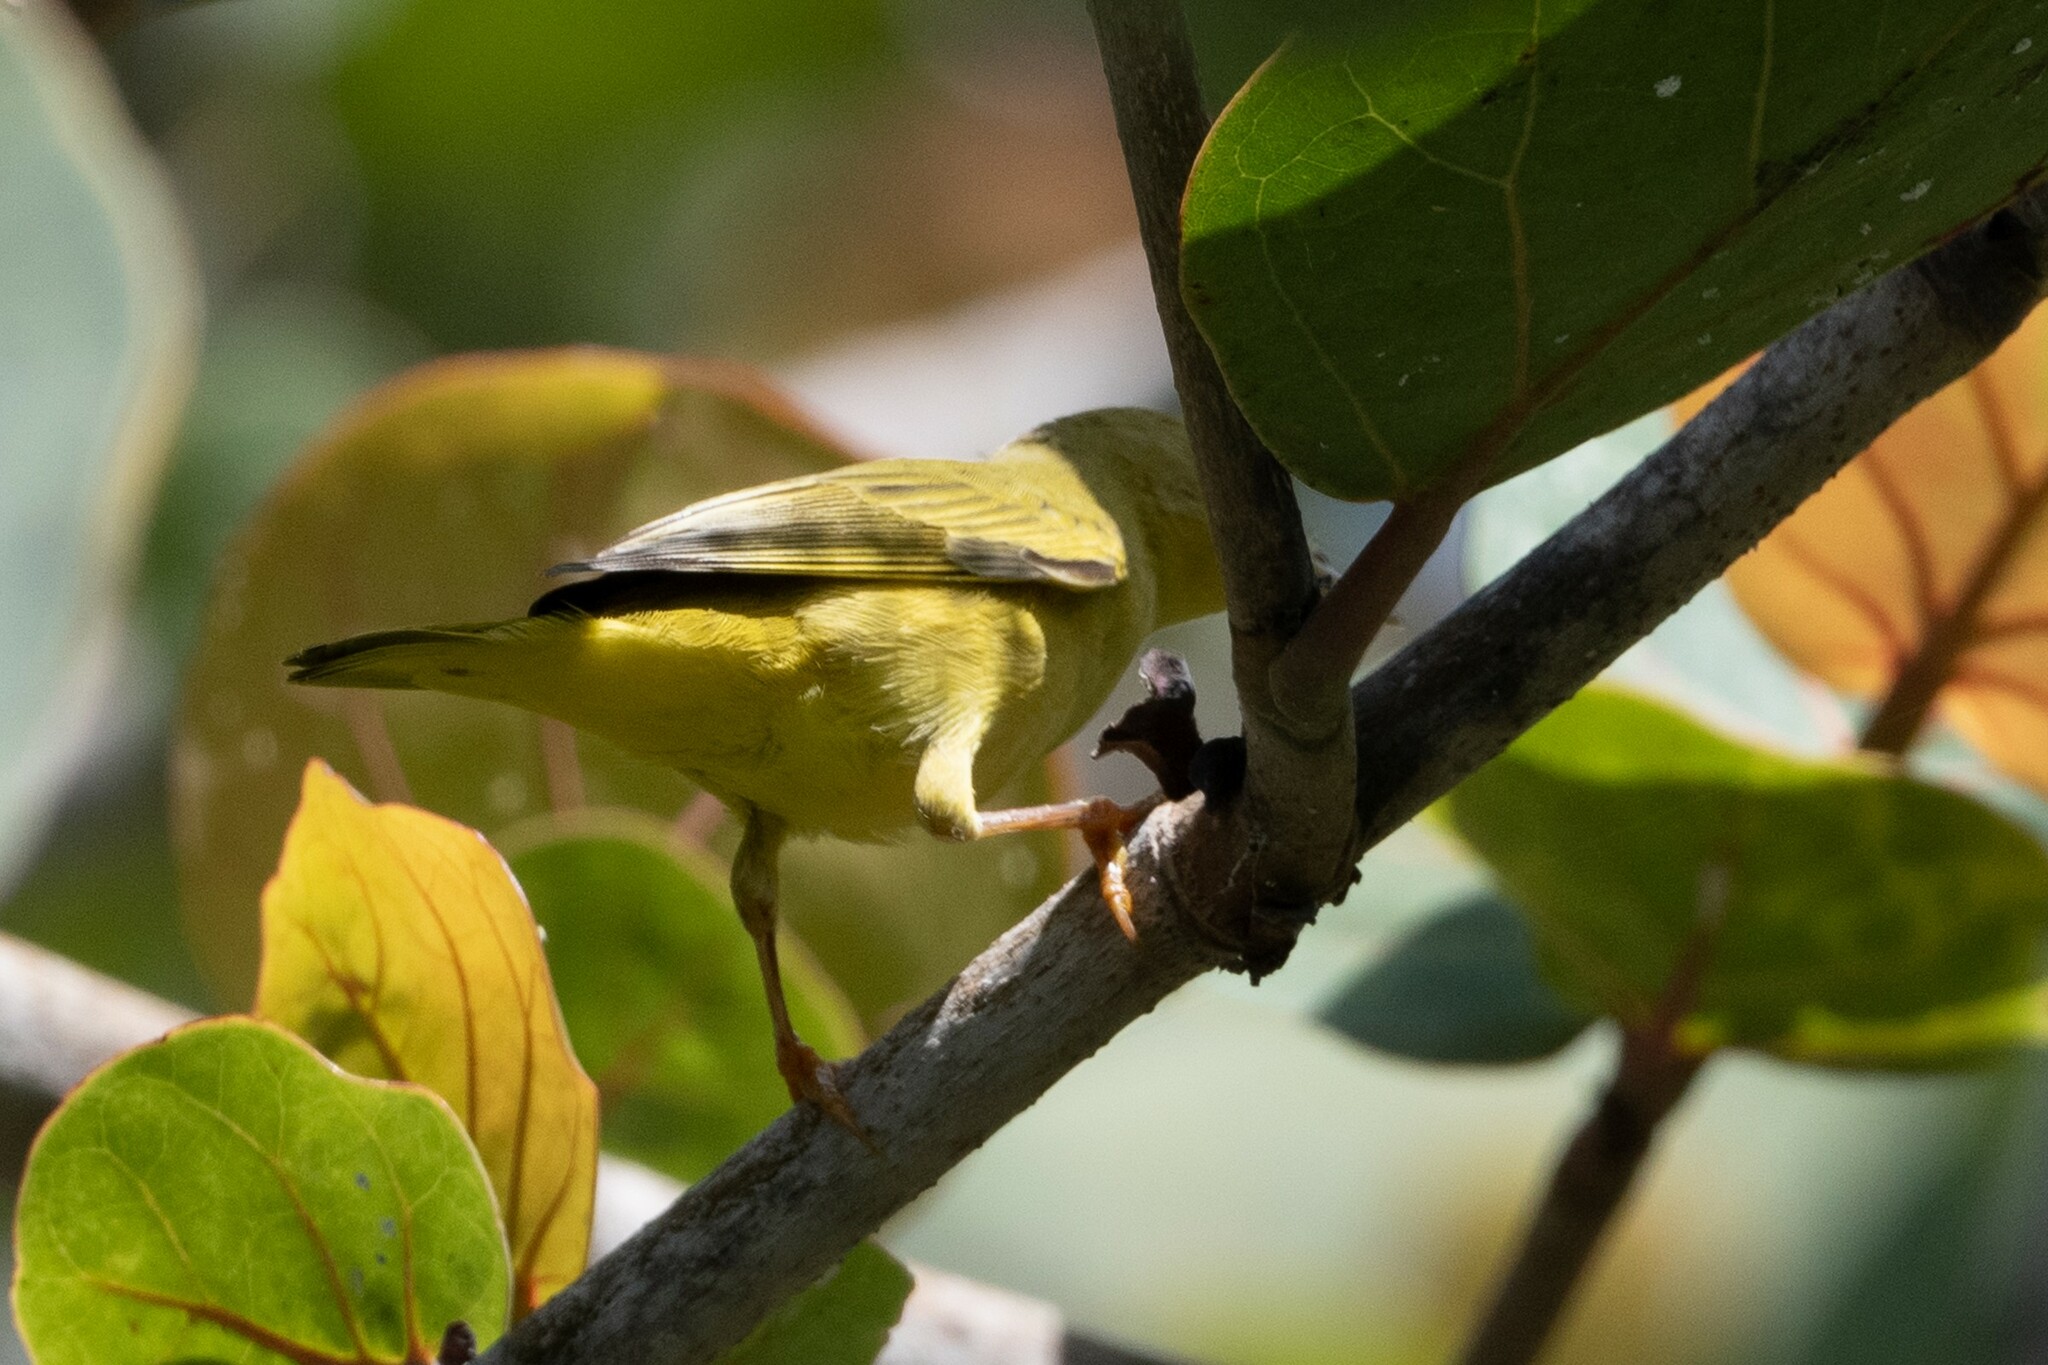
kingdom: Animalia
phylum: Chordata
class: Aves
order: Passeriformes
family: Parulidae
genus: Setophaga
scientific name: Setophaga petechia
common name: Yellow warbler
